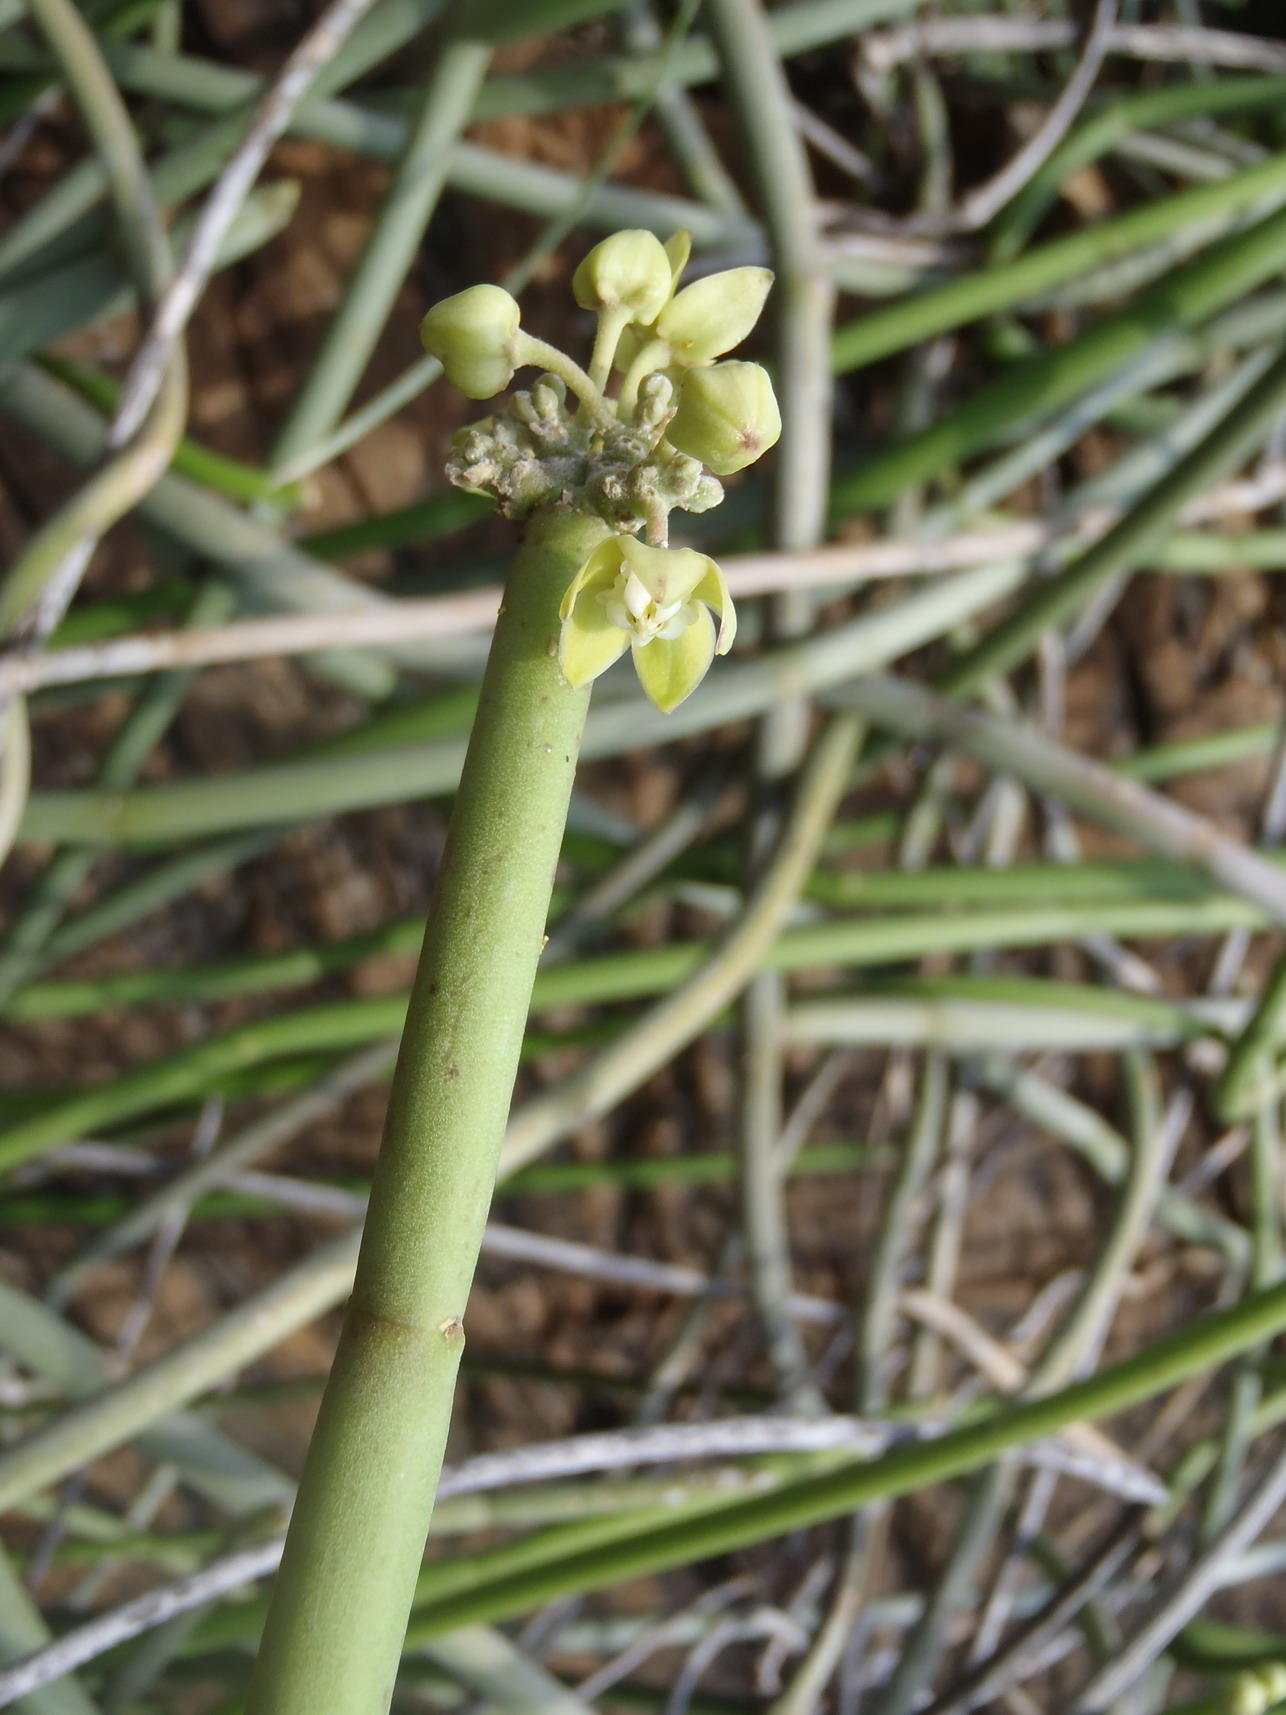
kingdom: Plantae
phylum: Tracheophyta
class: Magnoliopsida
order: Gentianales
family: Apocynaceae
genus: Cynanchum
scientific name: Cynanchum viminale
